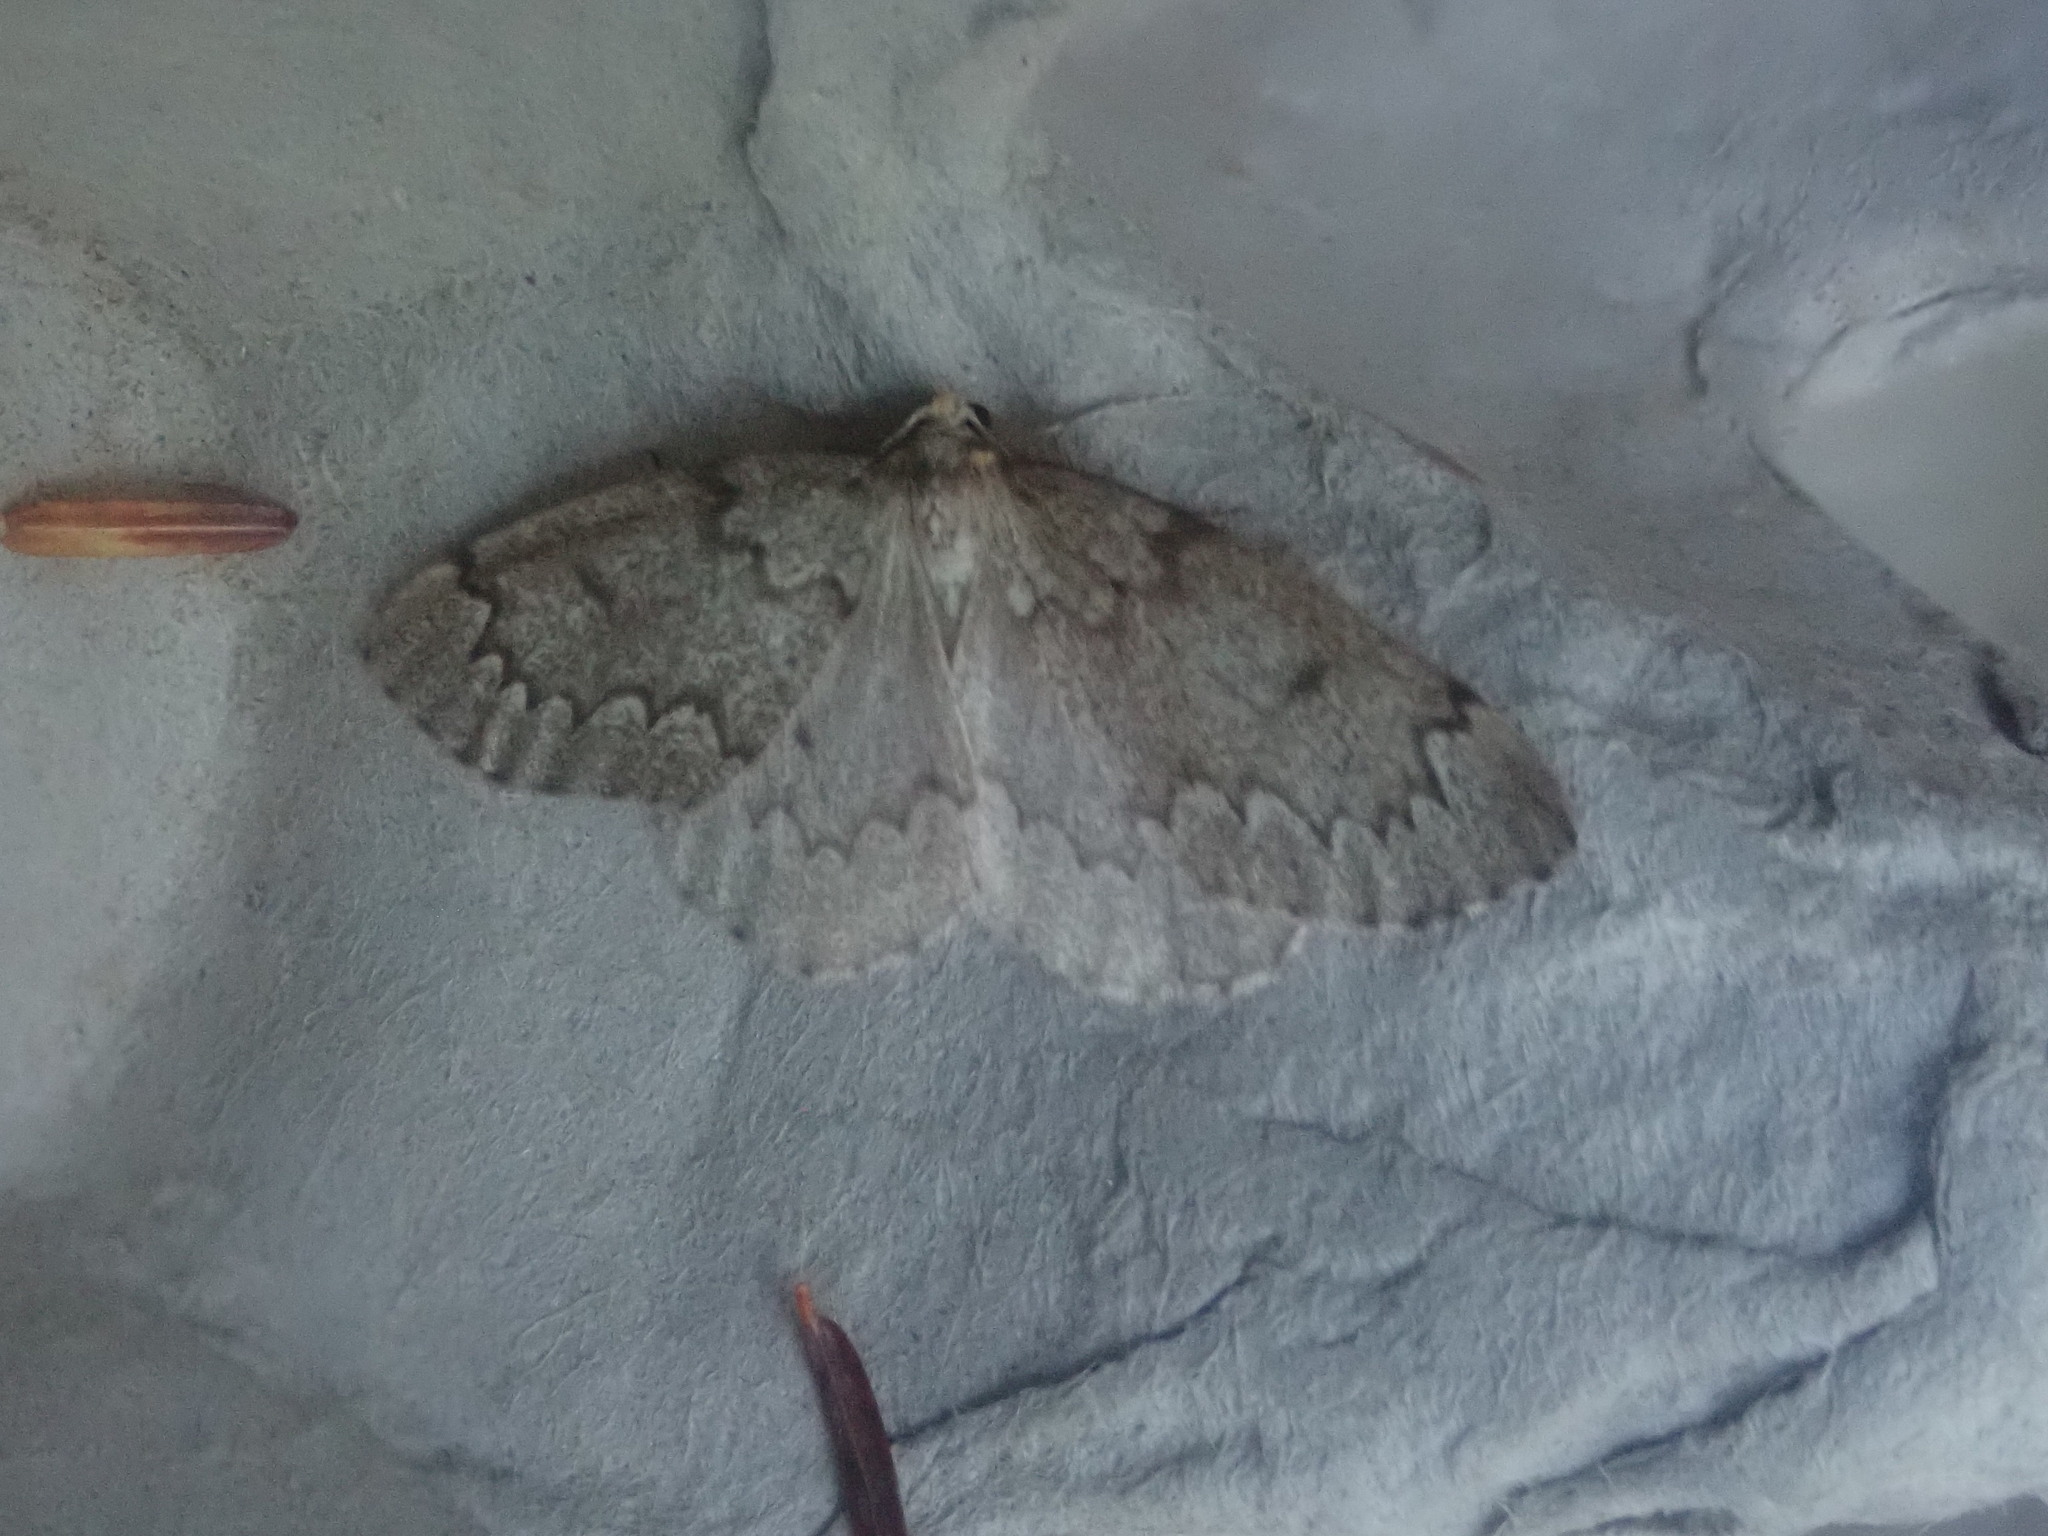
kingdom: Animalia
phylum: Arthropoda
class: Insecta
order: Lepidoptera
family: Geometridae
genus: Nepytia
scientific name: Nepytia canosaria
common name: False hemlock looper
